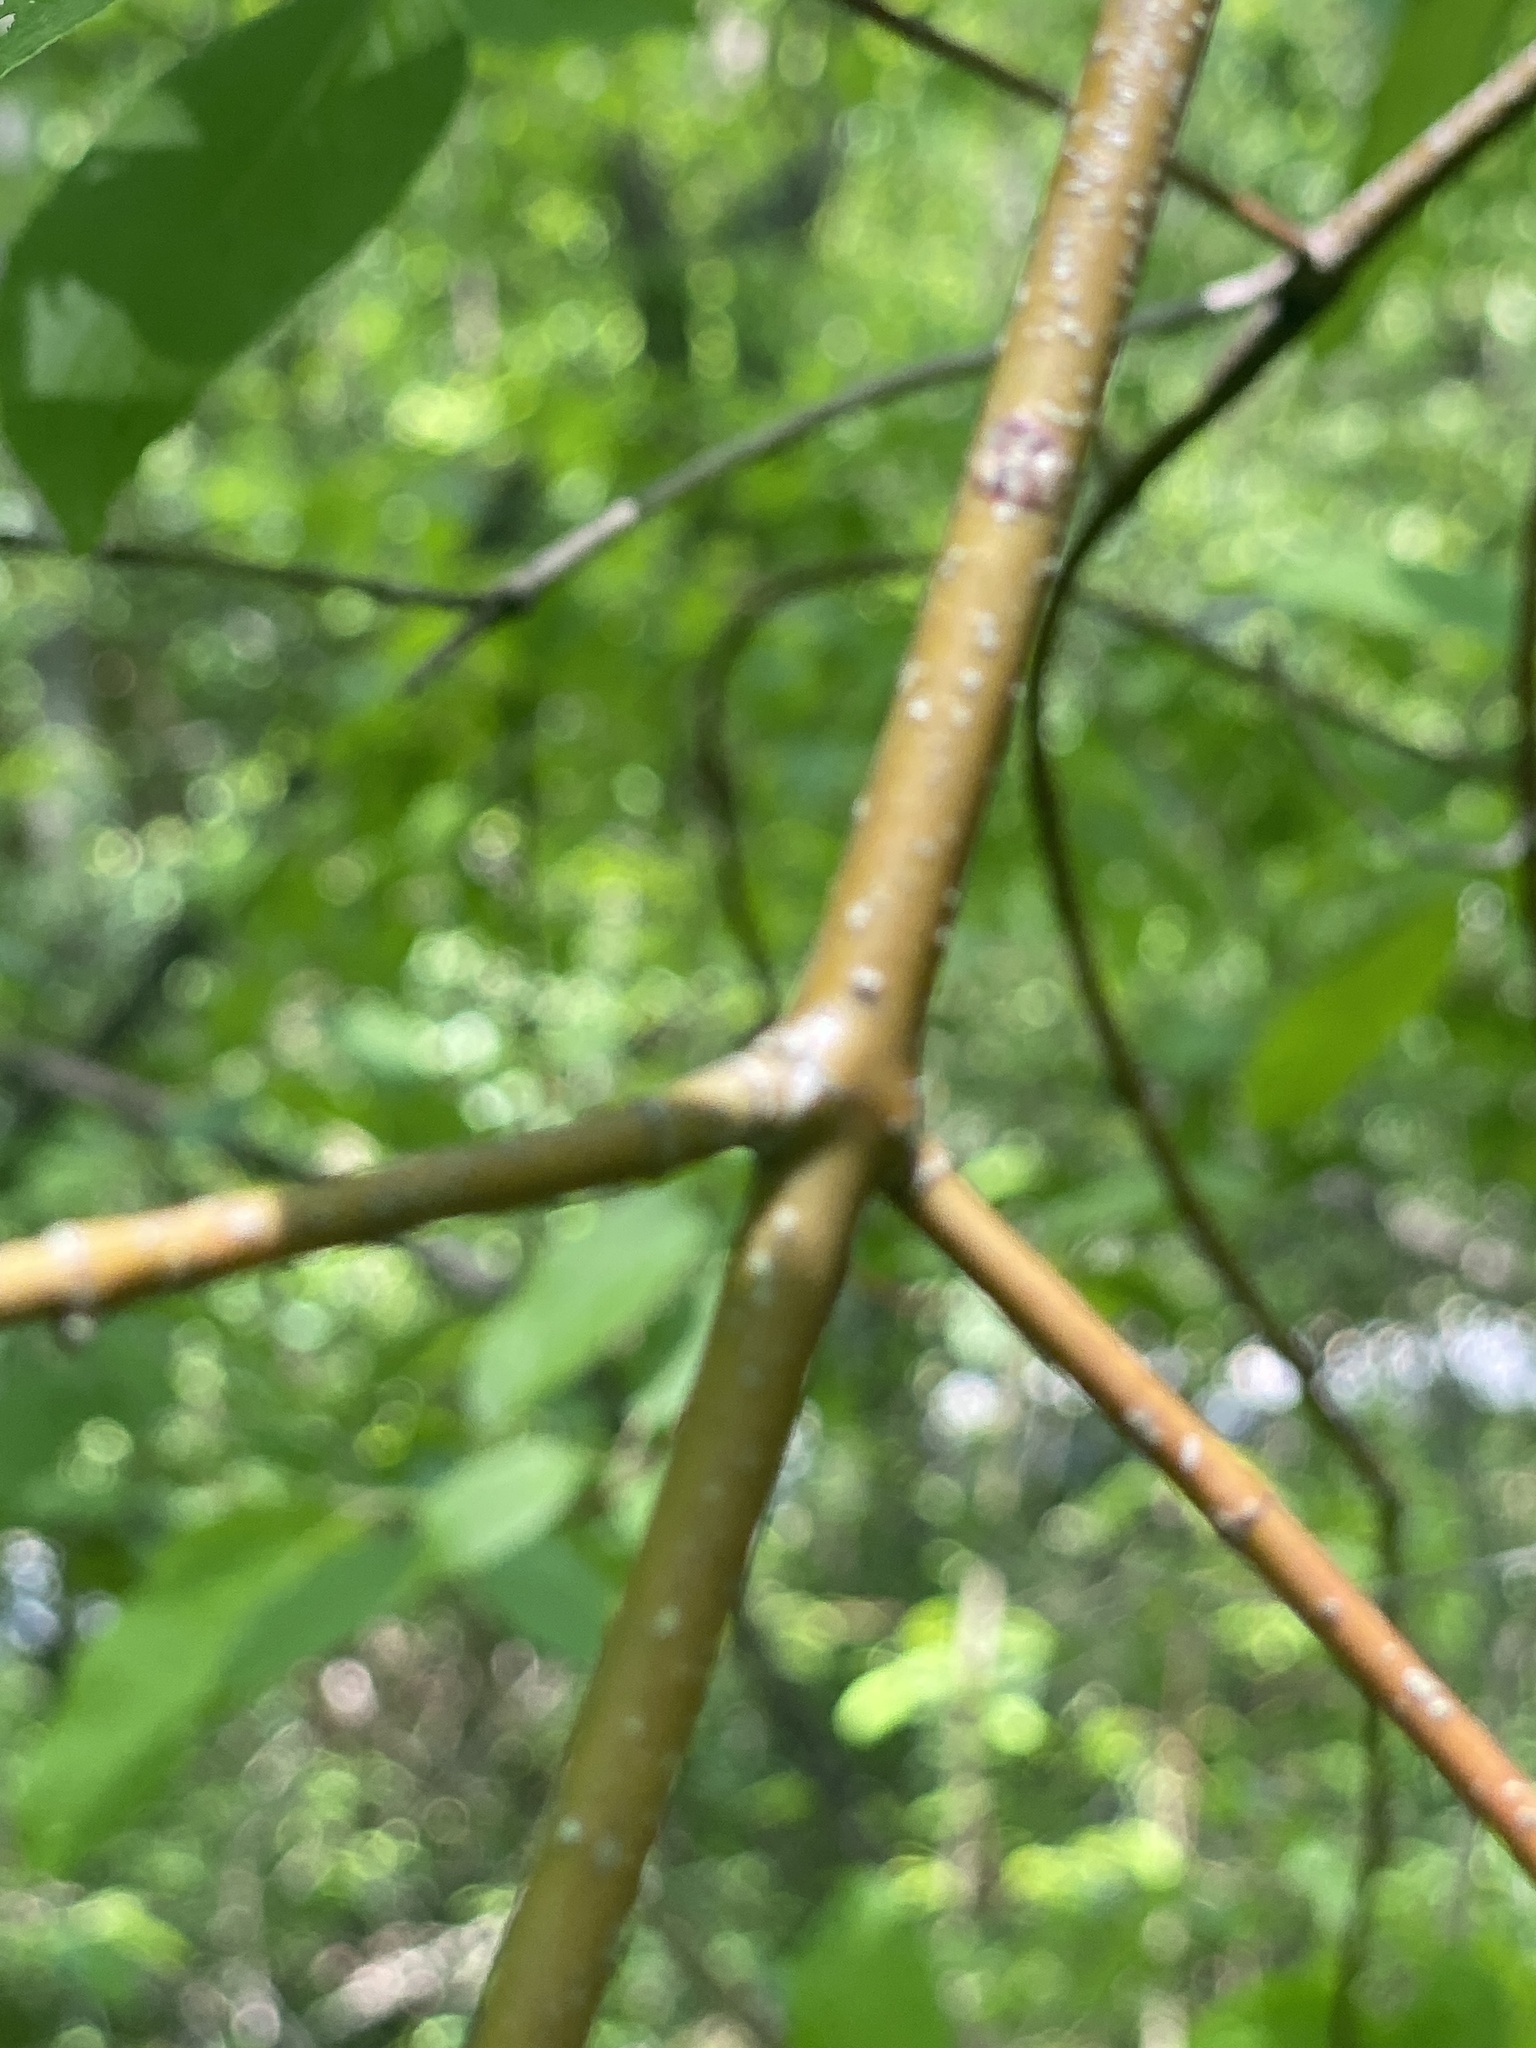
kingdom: Plantae
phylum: Tracheophyta
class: Magnoliopsida
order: Cornales
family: Cornaceae
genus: Cornus
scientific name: Cornus amomum
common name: Silky dogwood
